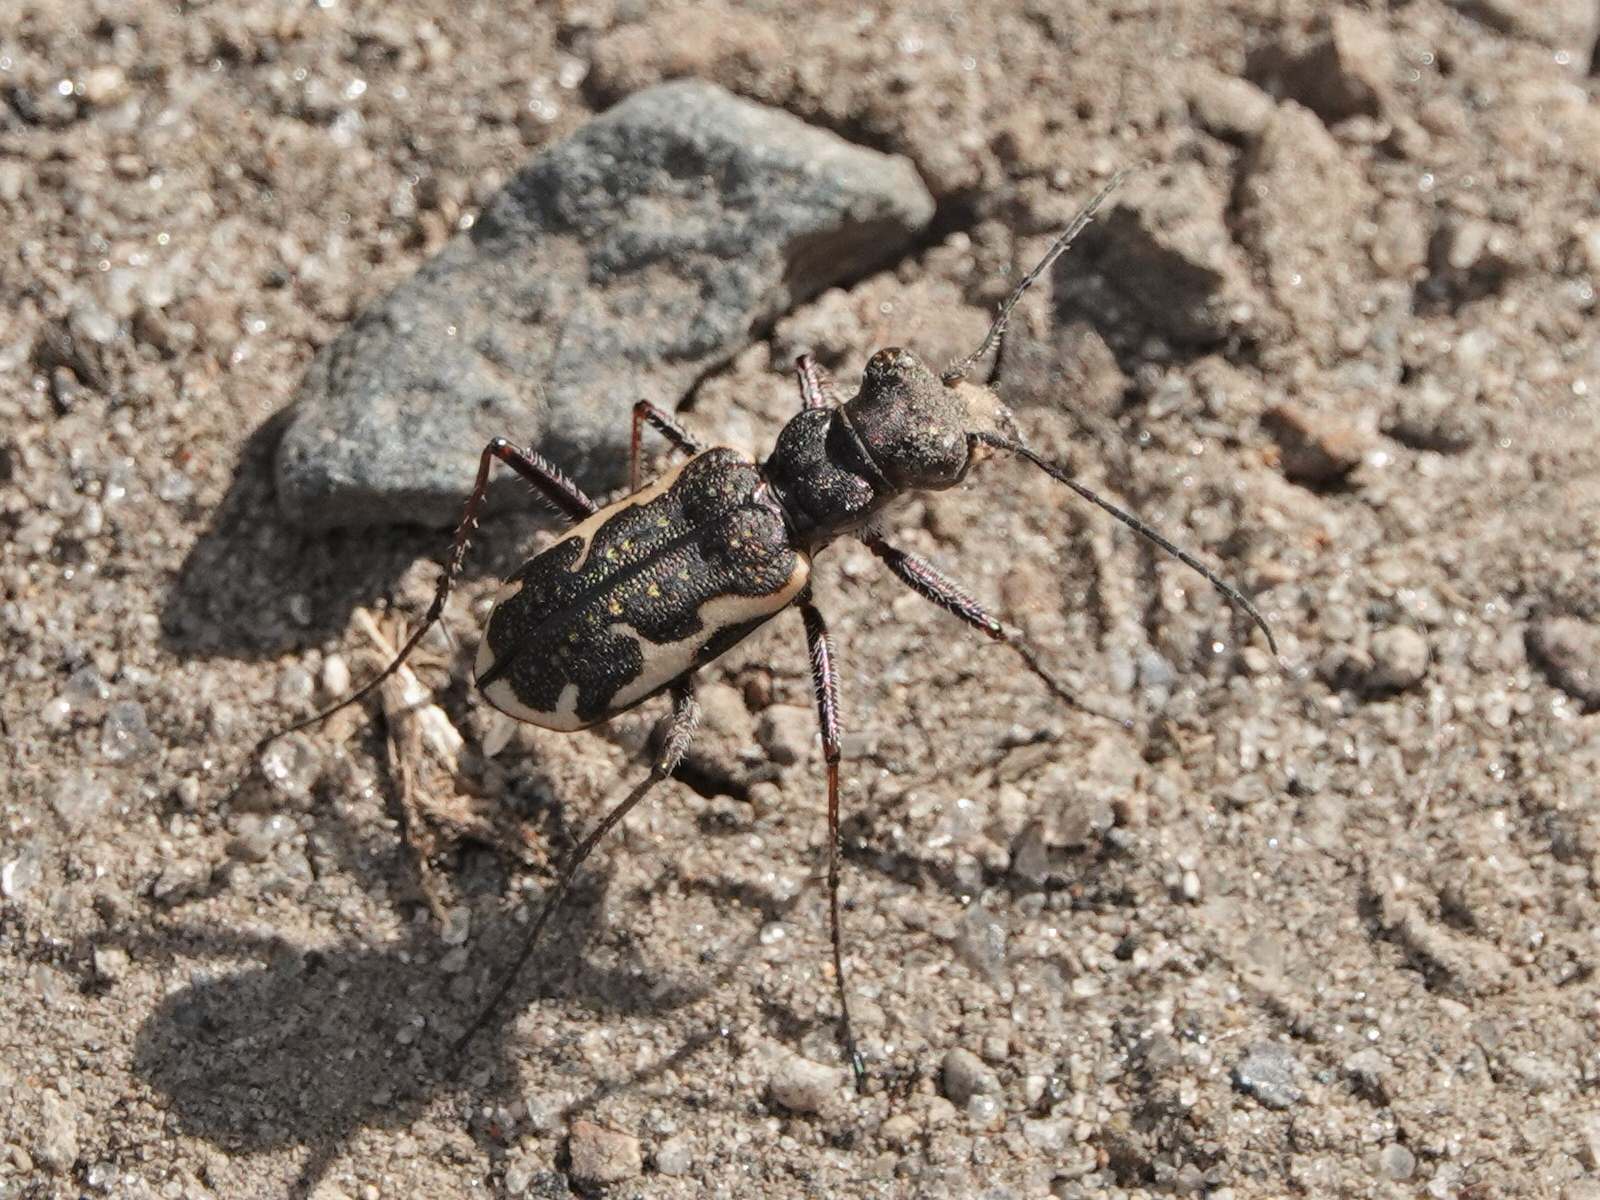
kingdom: Animalia
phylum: Arthropoda
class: Insecta
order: Coleoptera
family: Carabidae
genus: Neocicindela
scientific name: Neocicindela tuberculata
